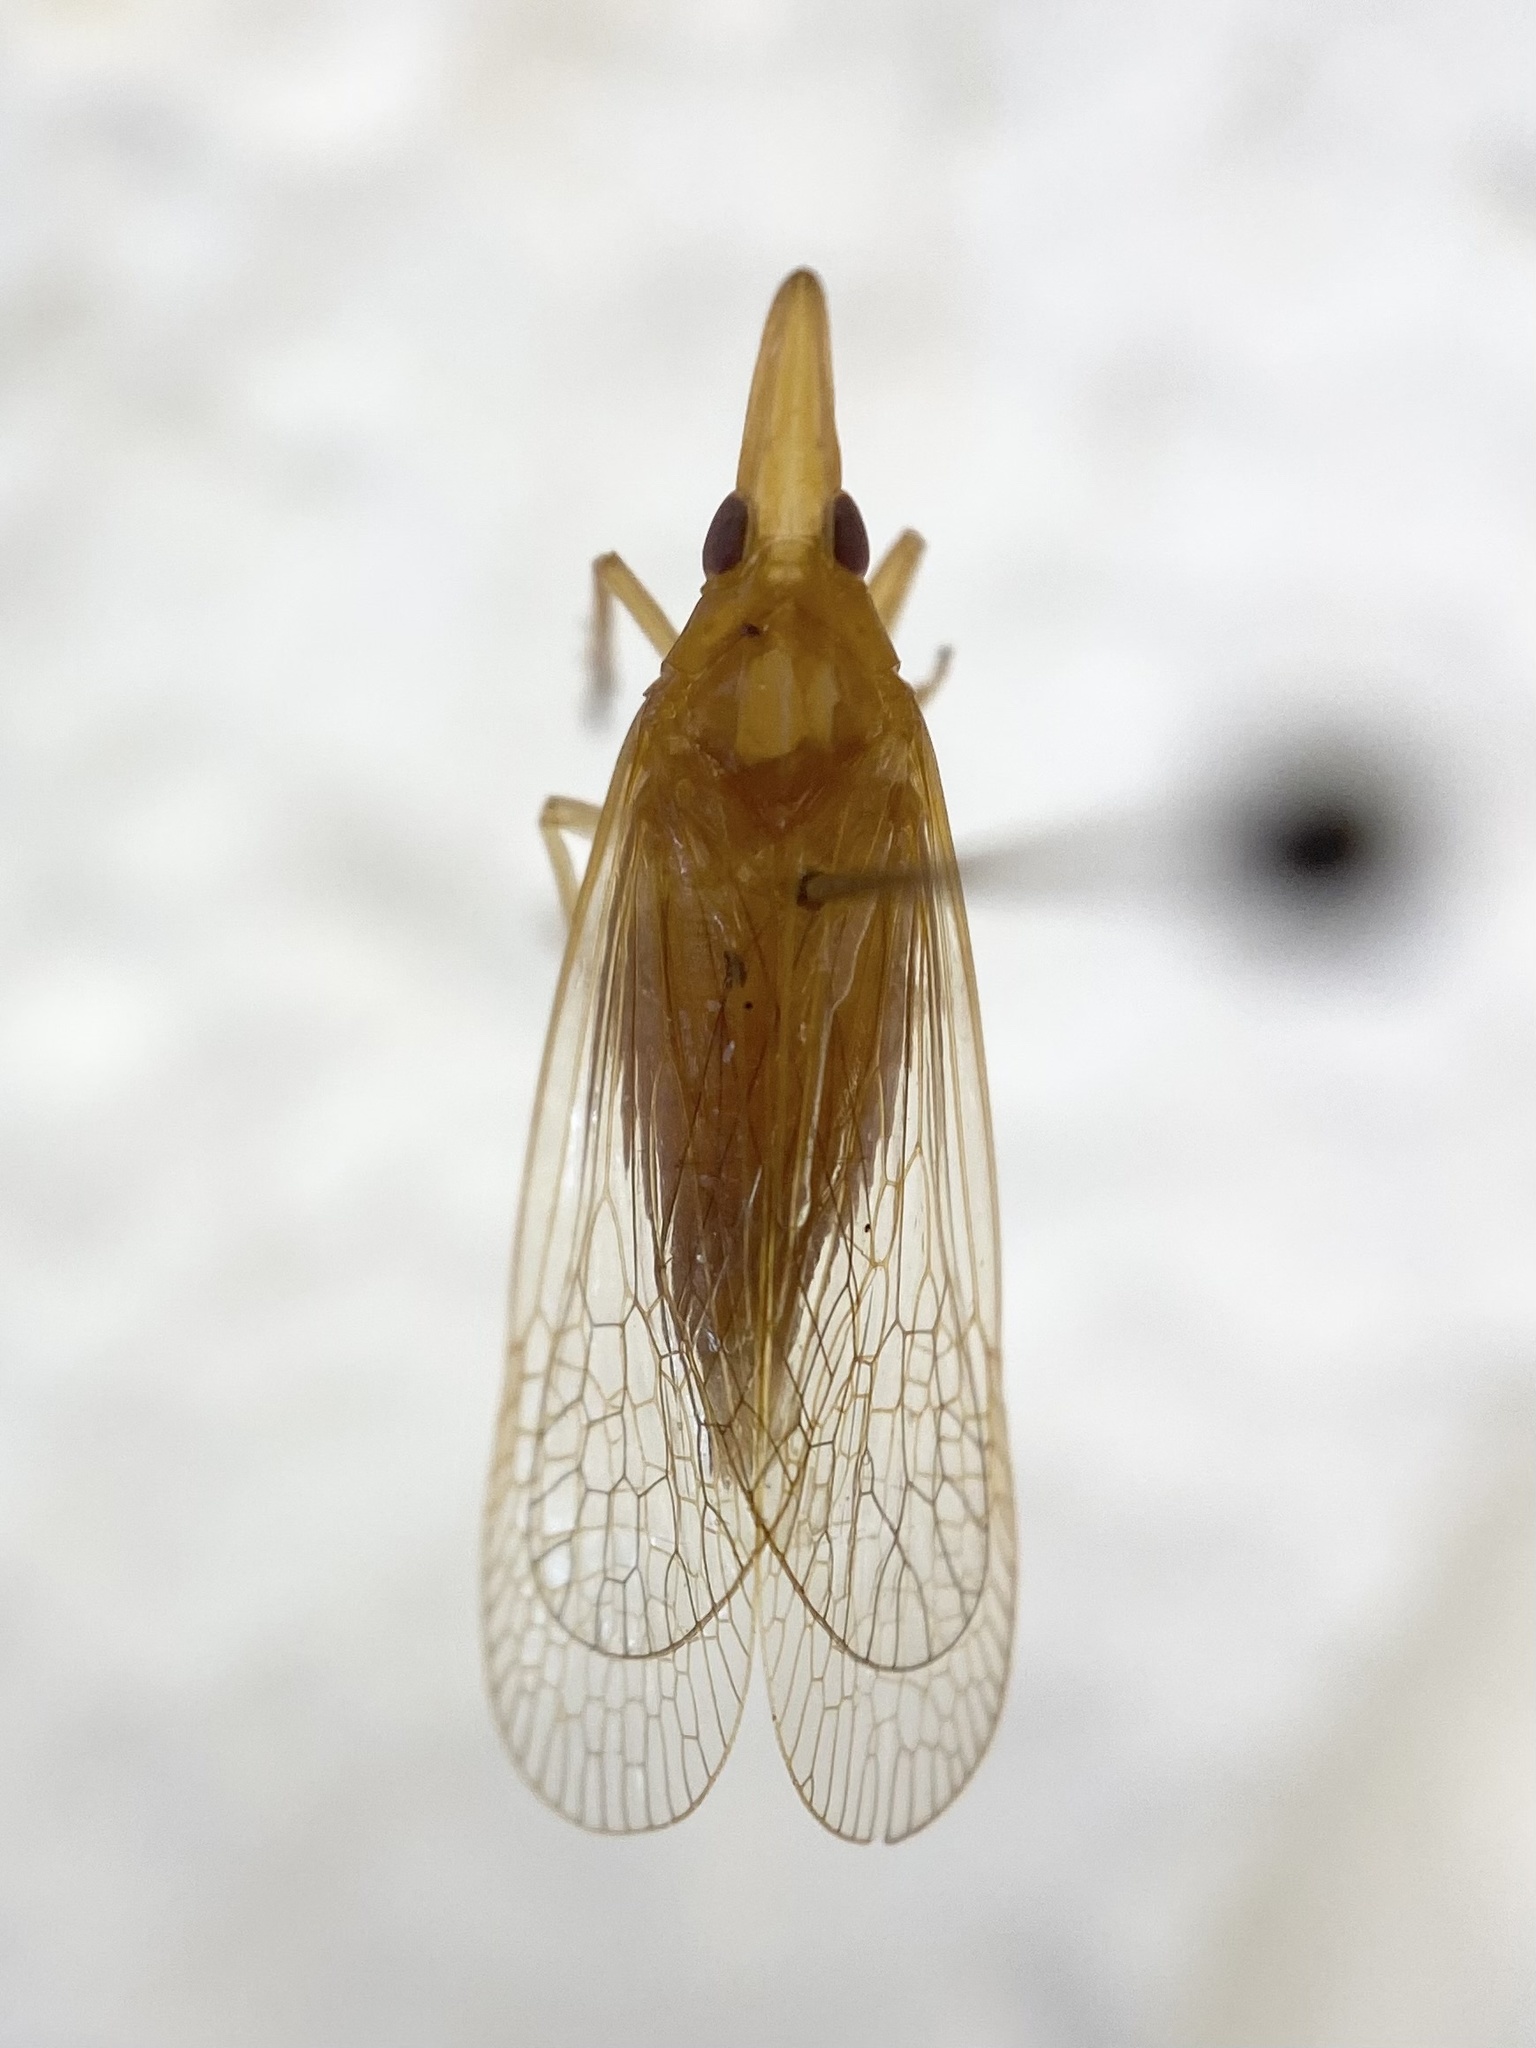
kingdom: Animalia
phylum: Arthropoda
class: Insecta
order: Hemiptera
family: Dictyopharidae
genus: Rhynchomitra
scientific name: Rhynchomitra microrhina
